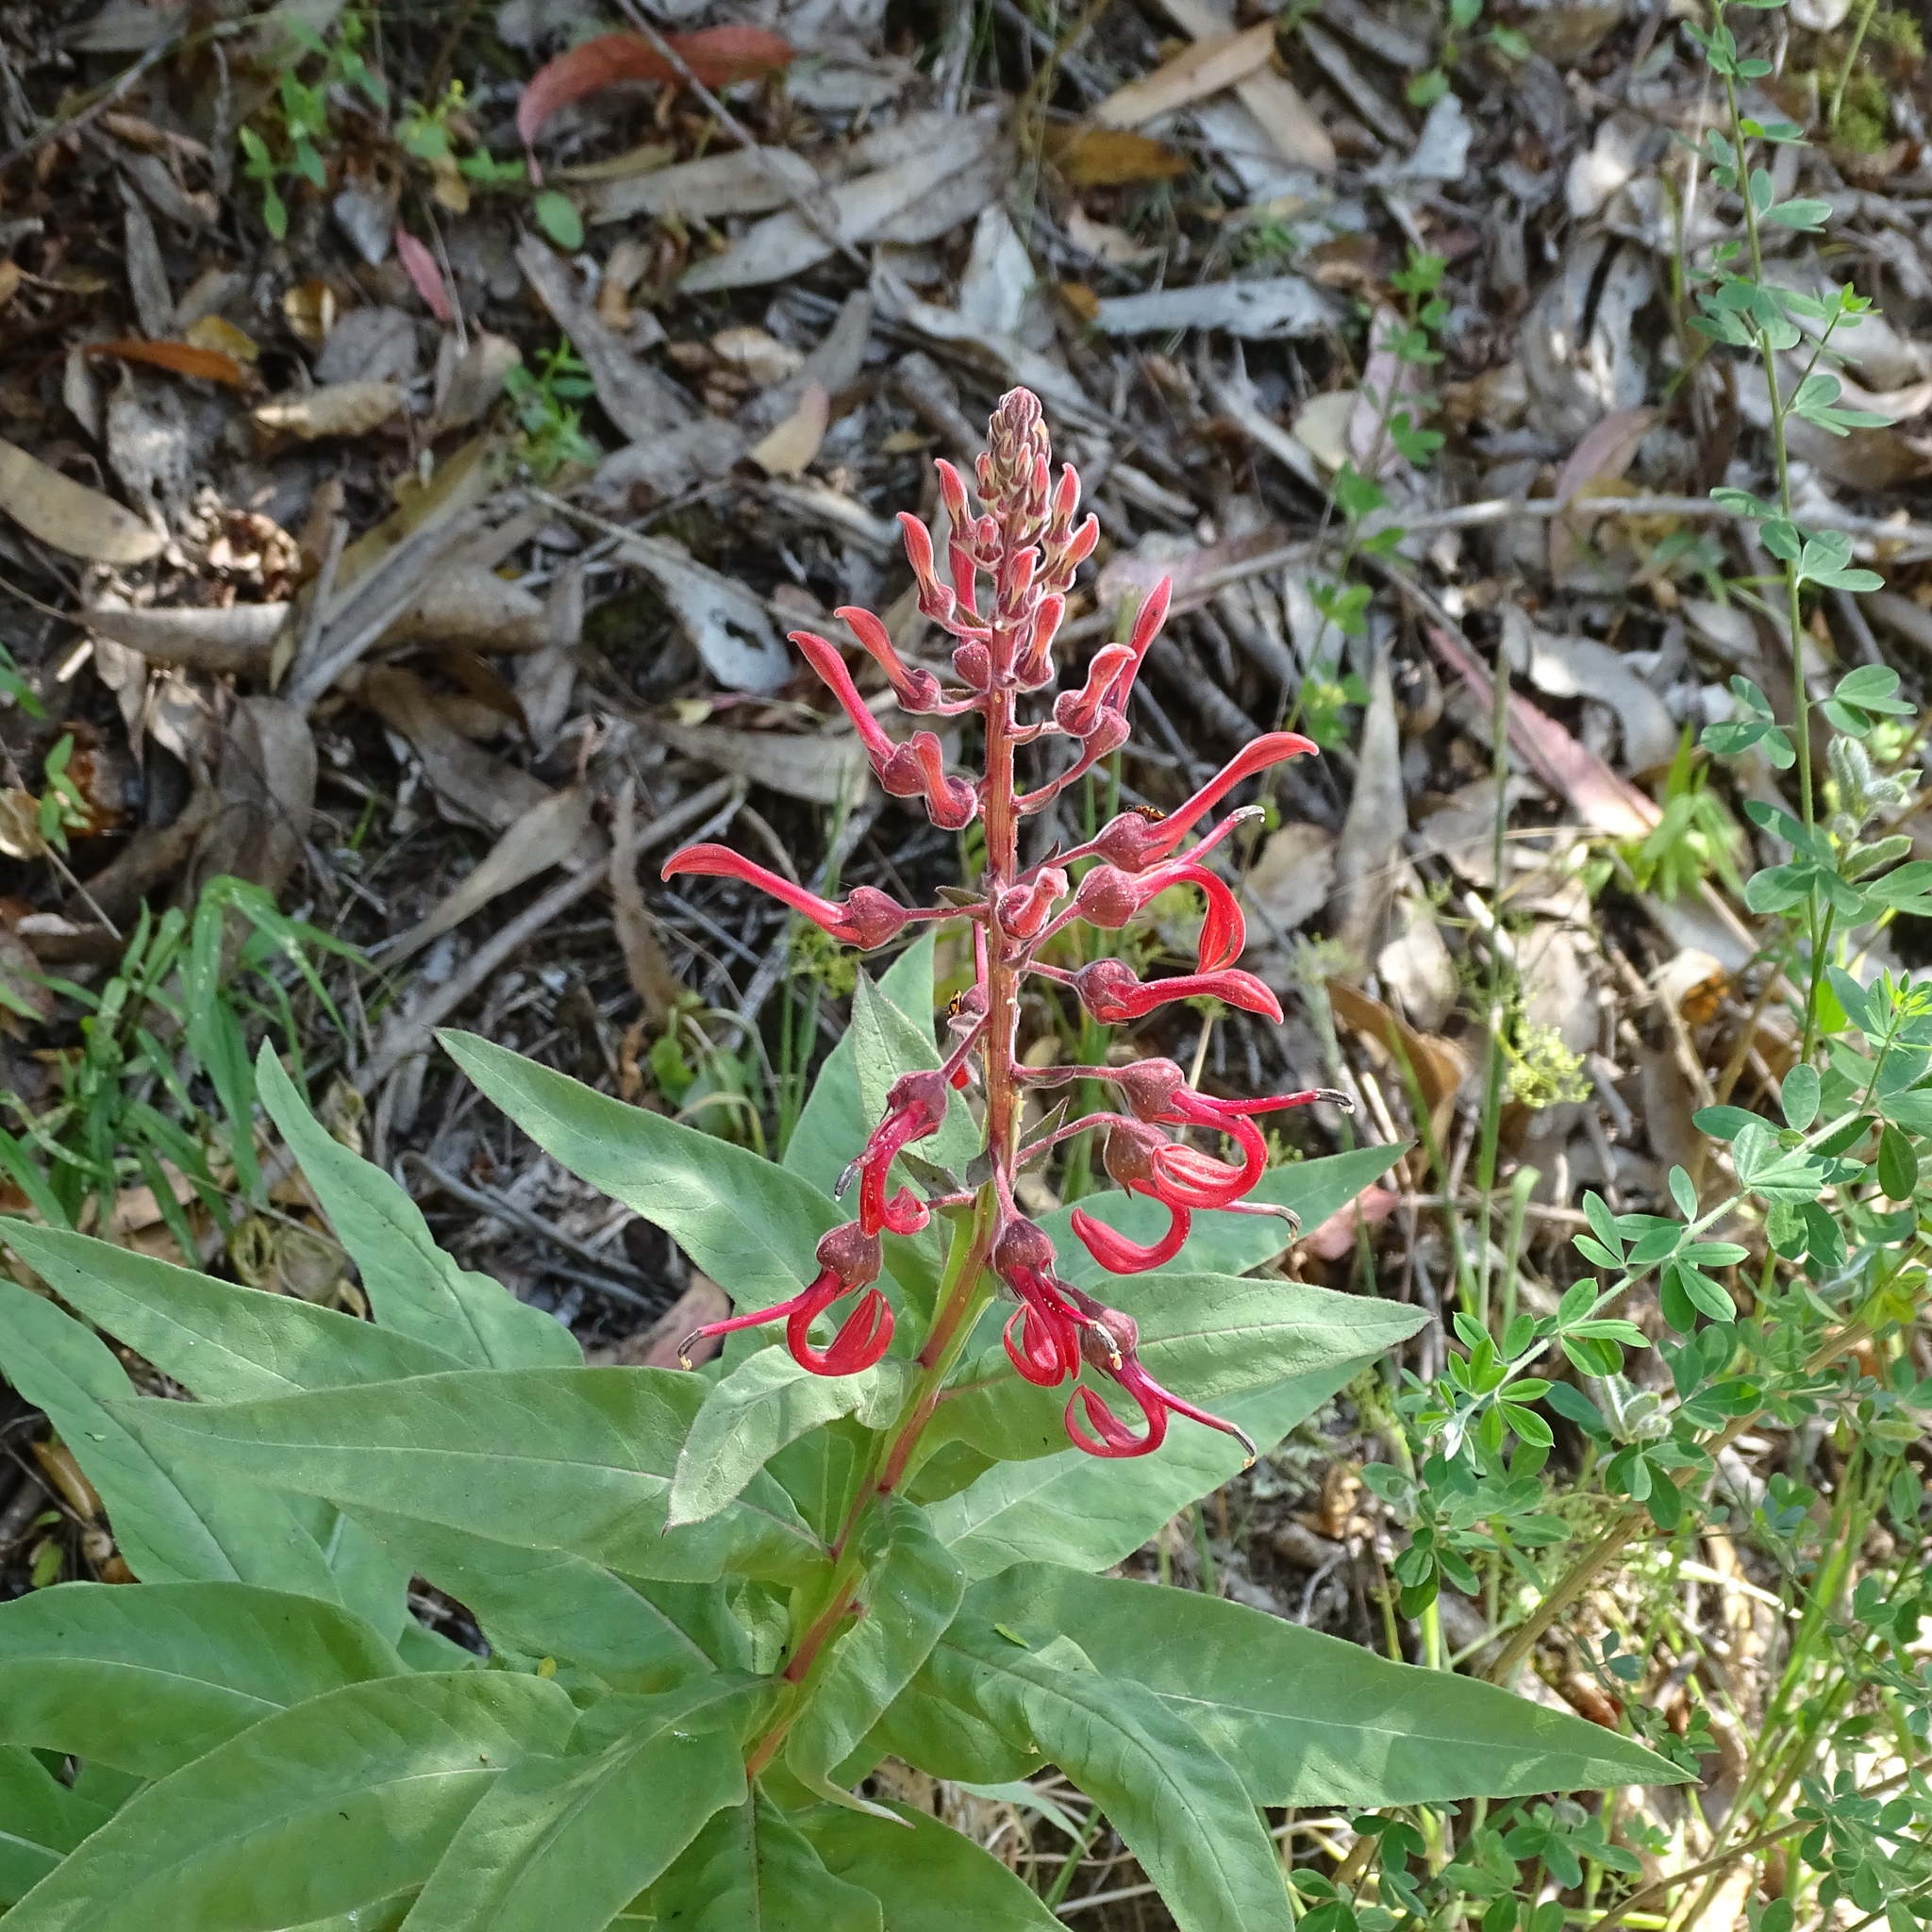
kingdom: Plantae
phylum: Tracheophyta
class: Magnoliopsida
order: Asterales
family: Campanulaceae
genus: Lobelia
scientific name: Lobelia tupa
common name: Devil's-tobacco
